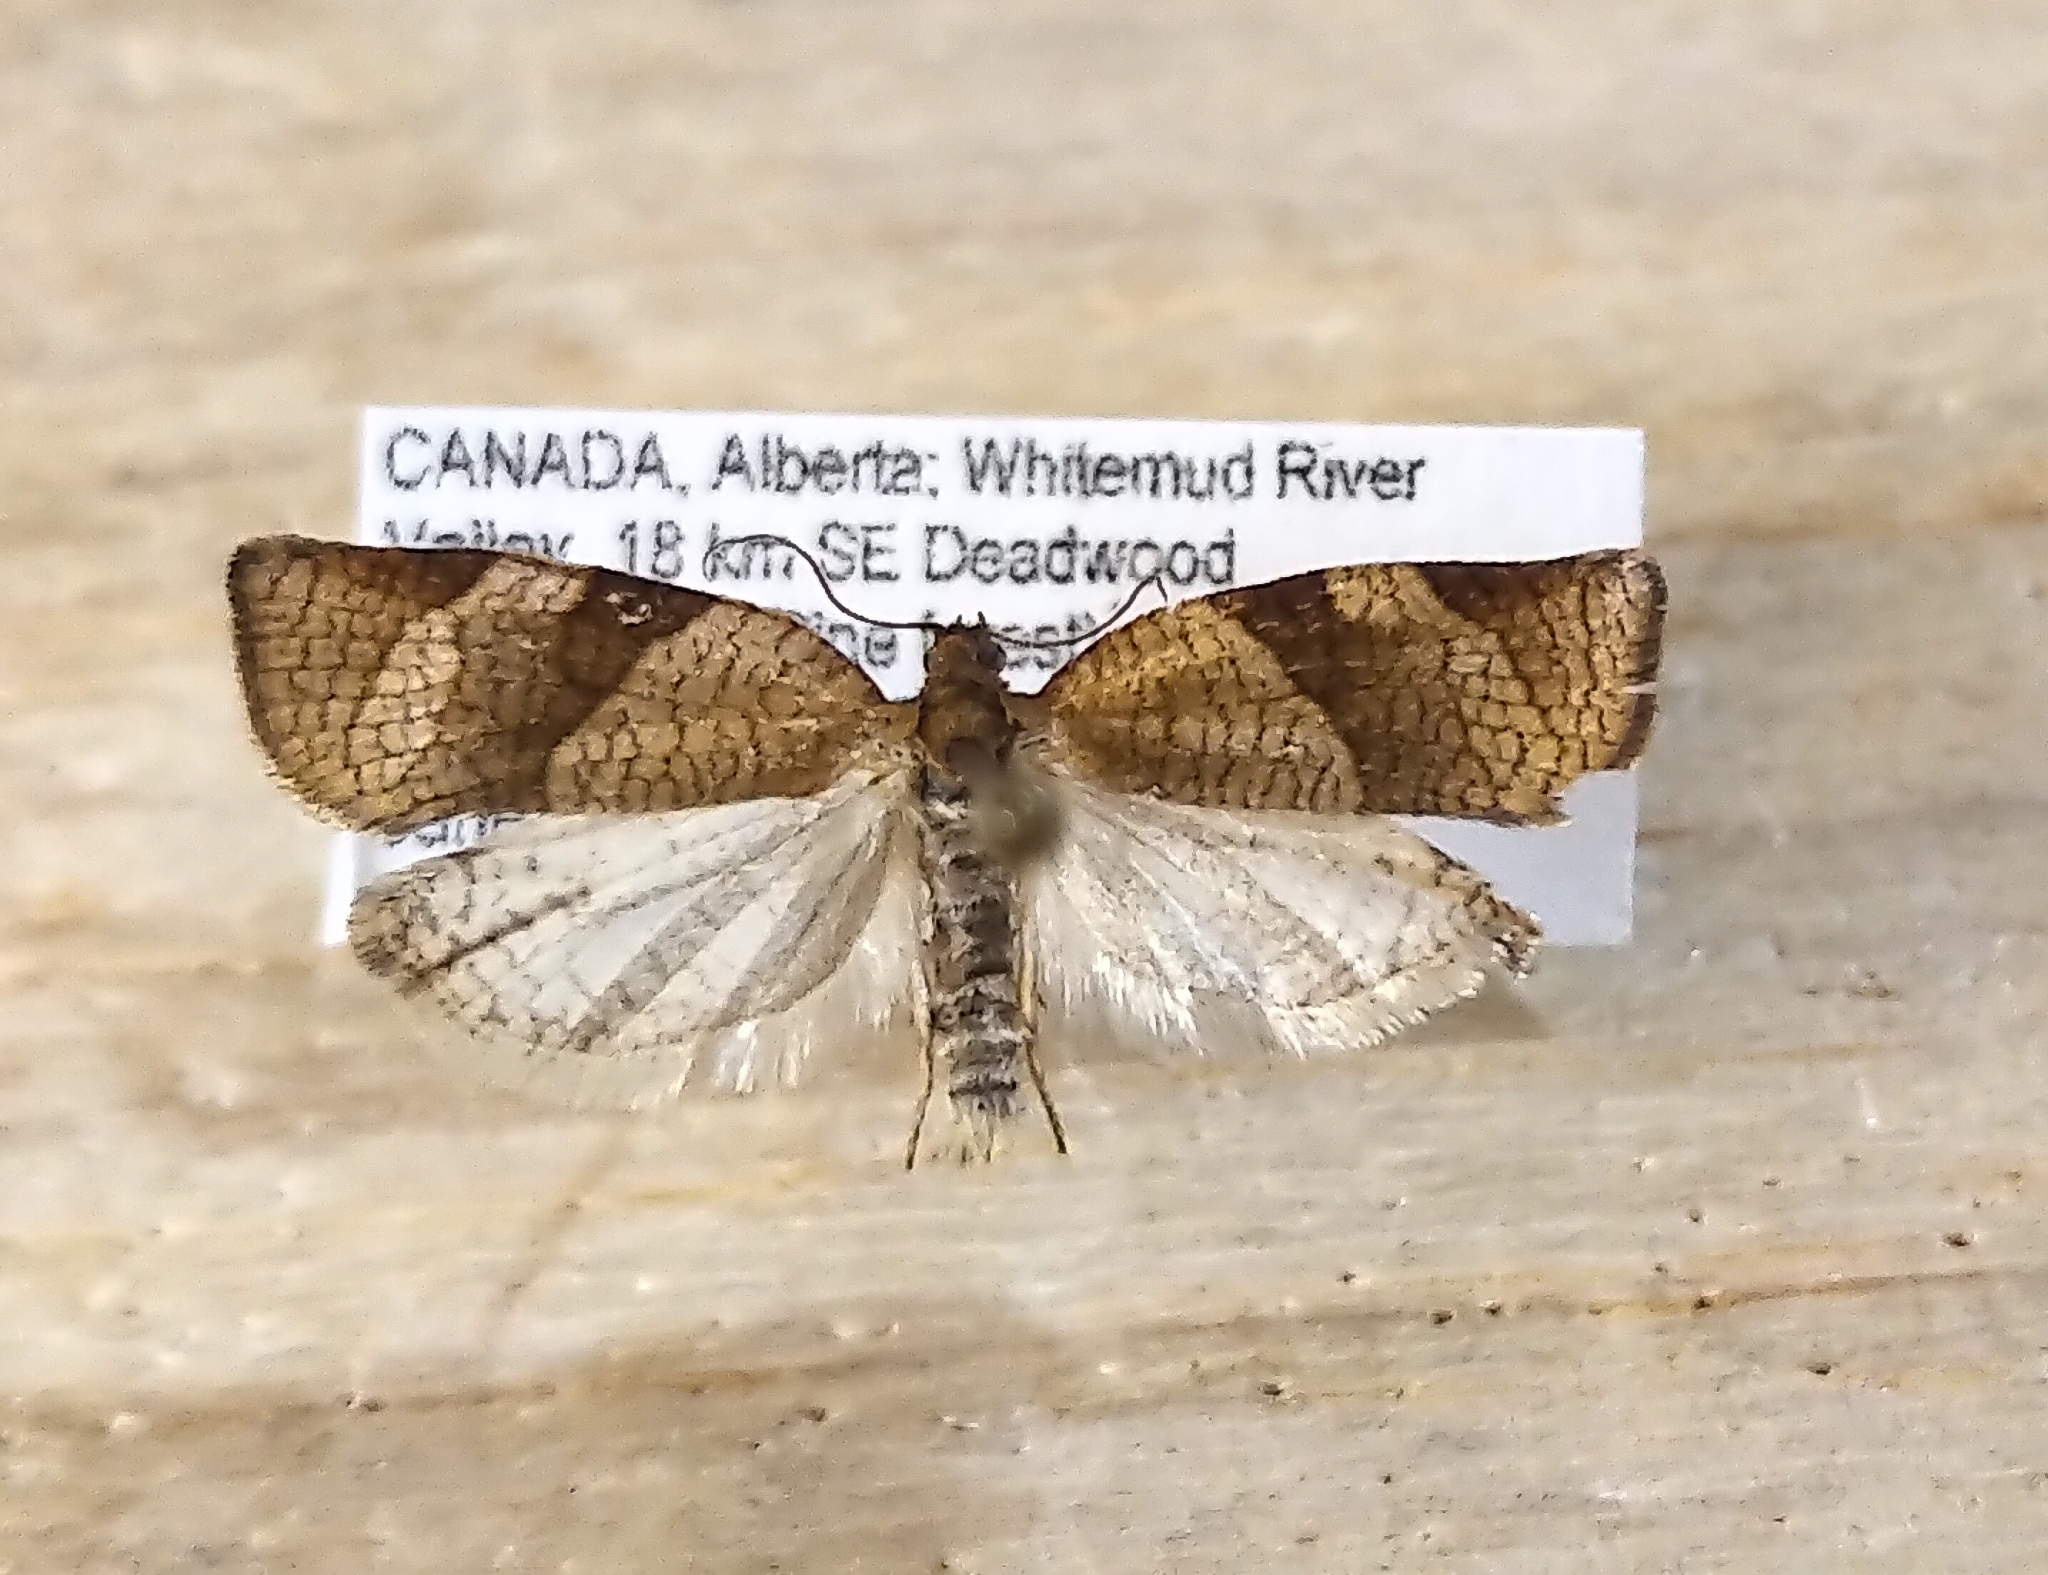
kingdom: Animalia
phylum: Arthropoda
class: Insecta
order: Lepidoptera
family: Tortricidae
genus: Choristoneura
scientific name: Choristoneura albaniana
